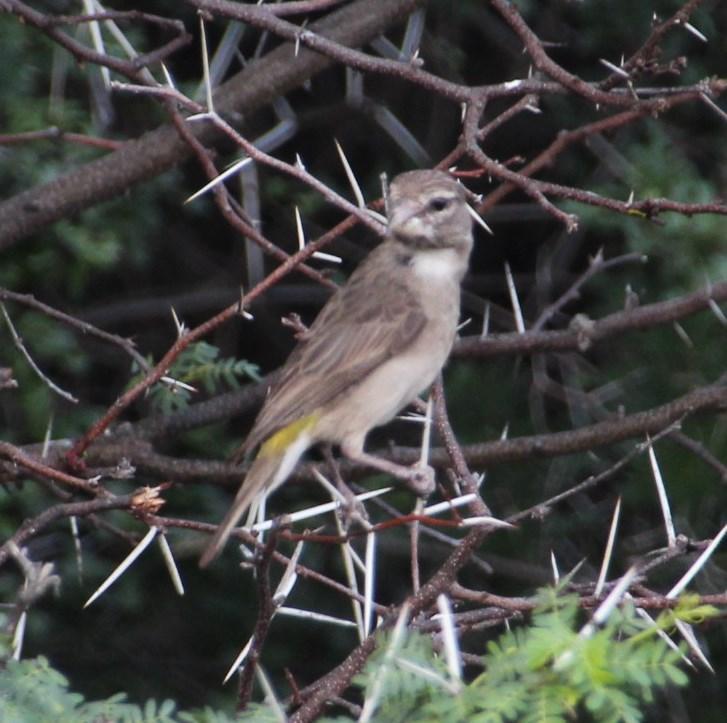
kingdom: Animalia
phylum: Chordata
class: Aves
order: Passeriformes
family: Fringillidae
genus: Crithagra
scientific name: Crithagra albogularis
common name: White-throated canary
